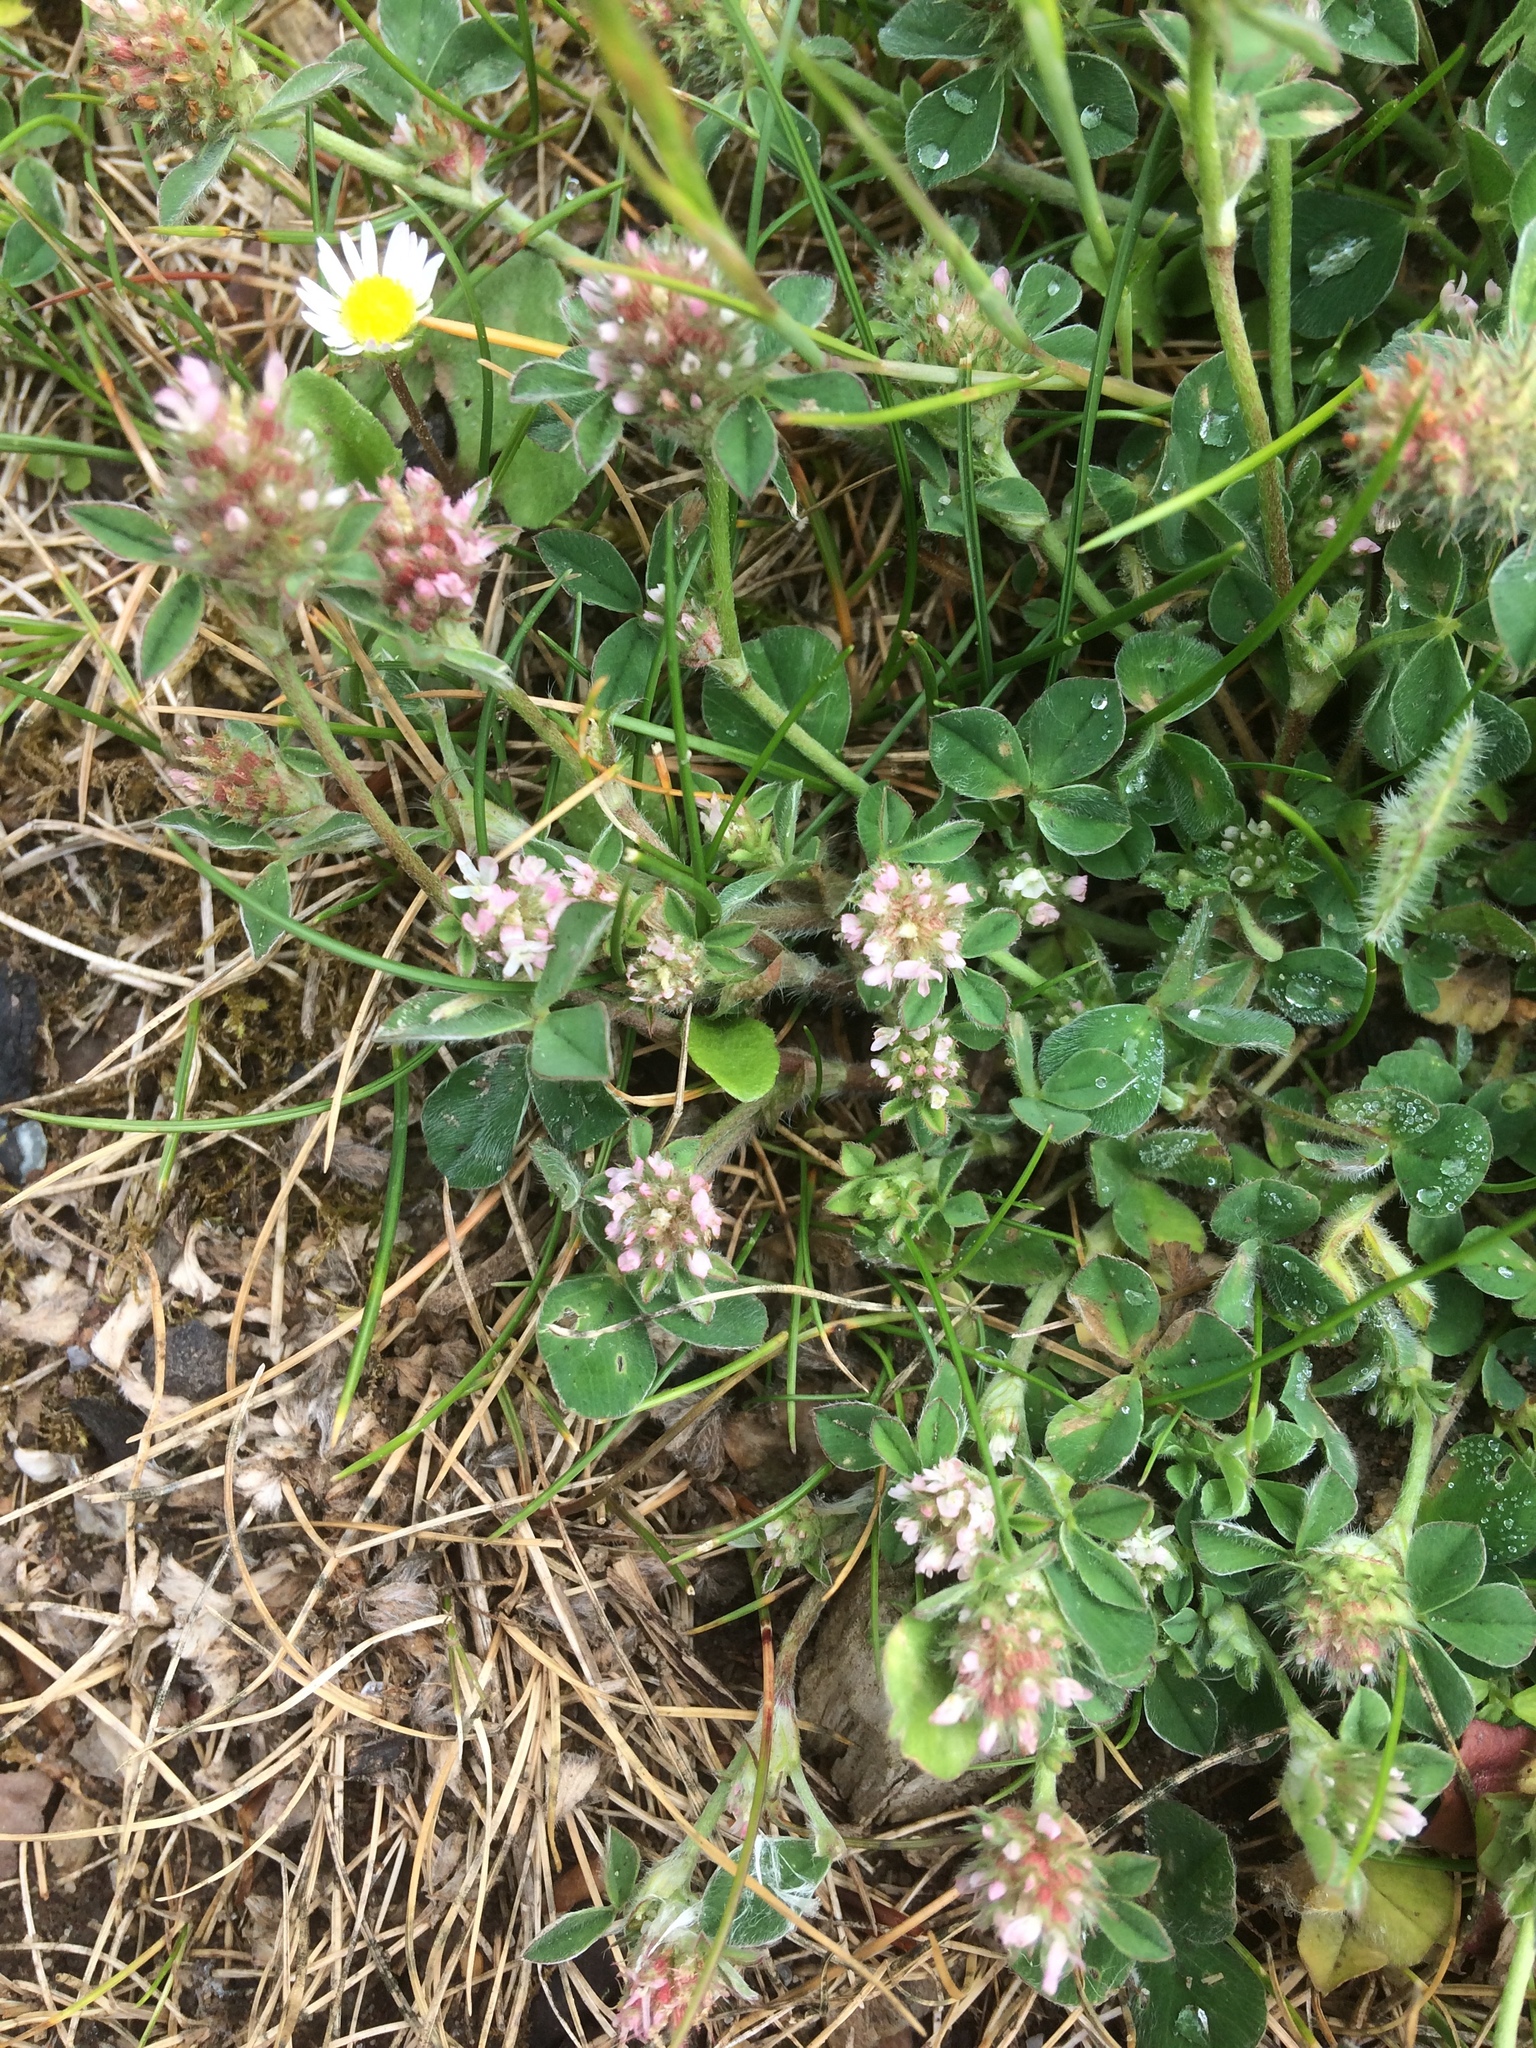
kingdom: Plantae
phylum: Tracheophyta
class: Magnoliopsida
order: Fabales
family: Fabaceae
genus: Trifolium
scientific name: Trifolium striatum
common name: Knotted clover
